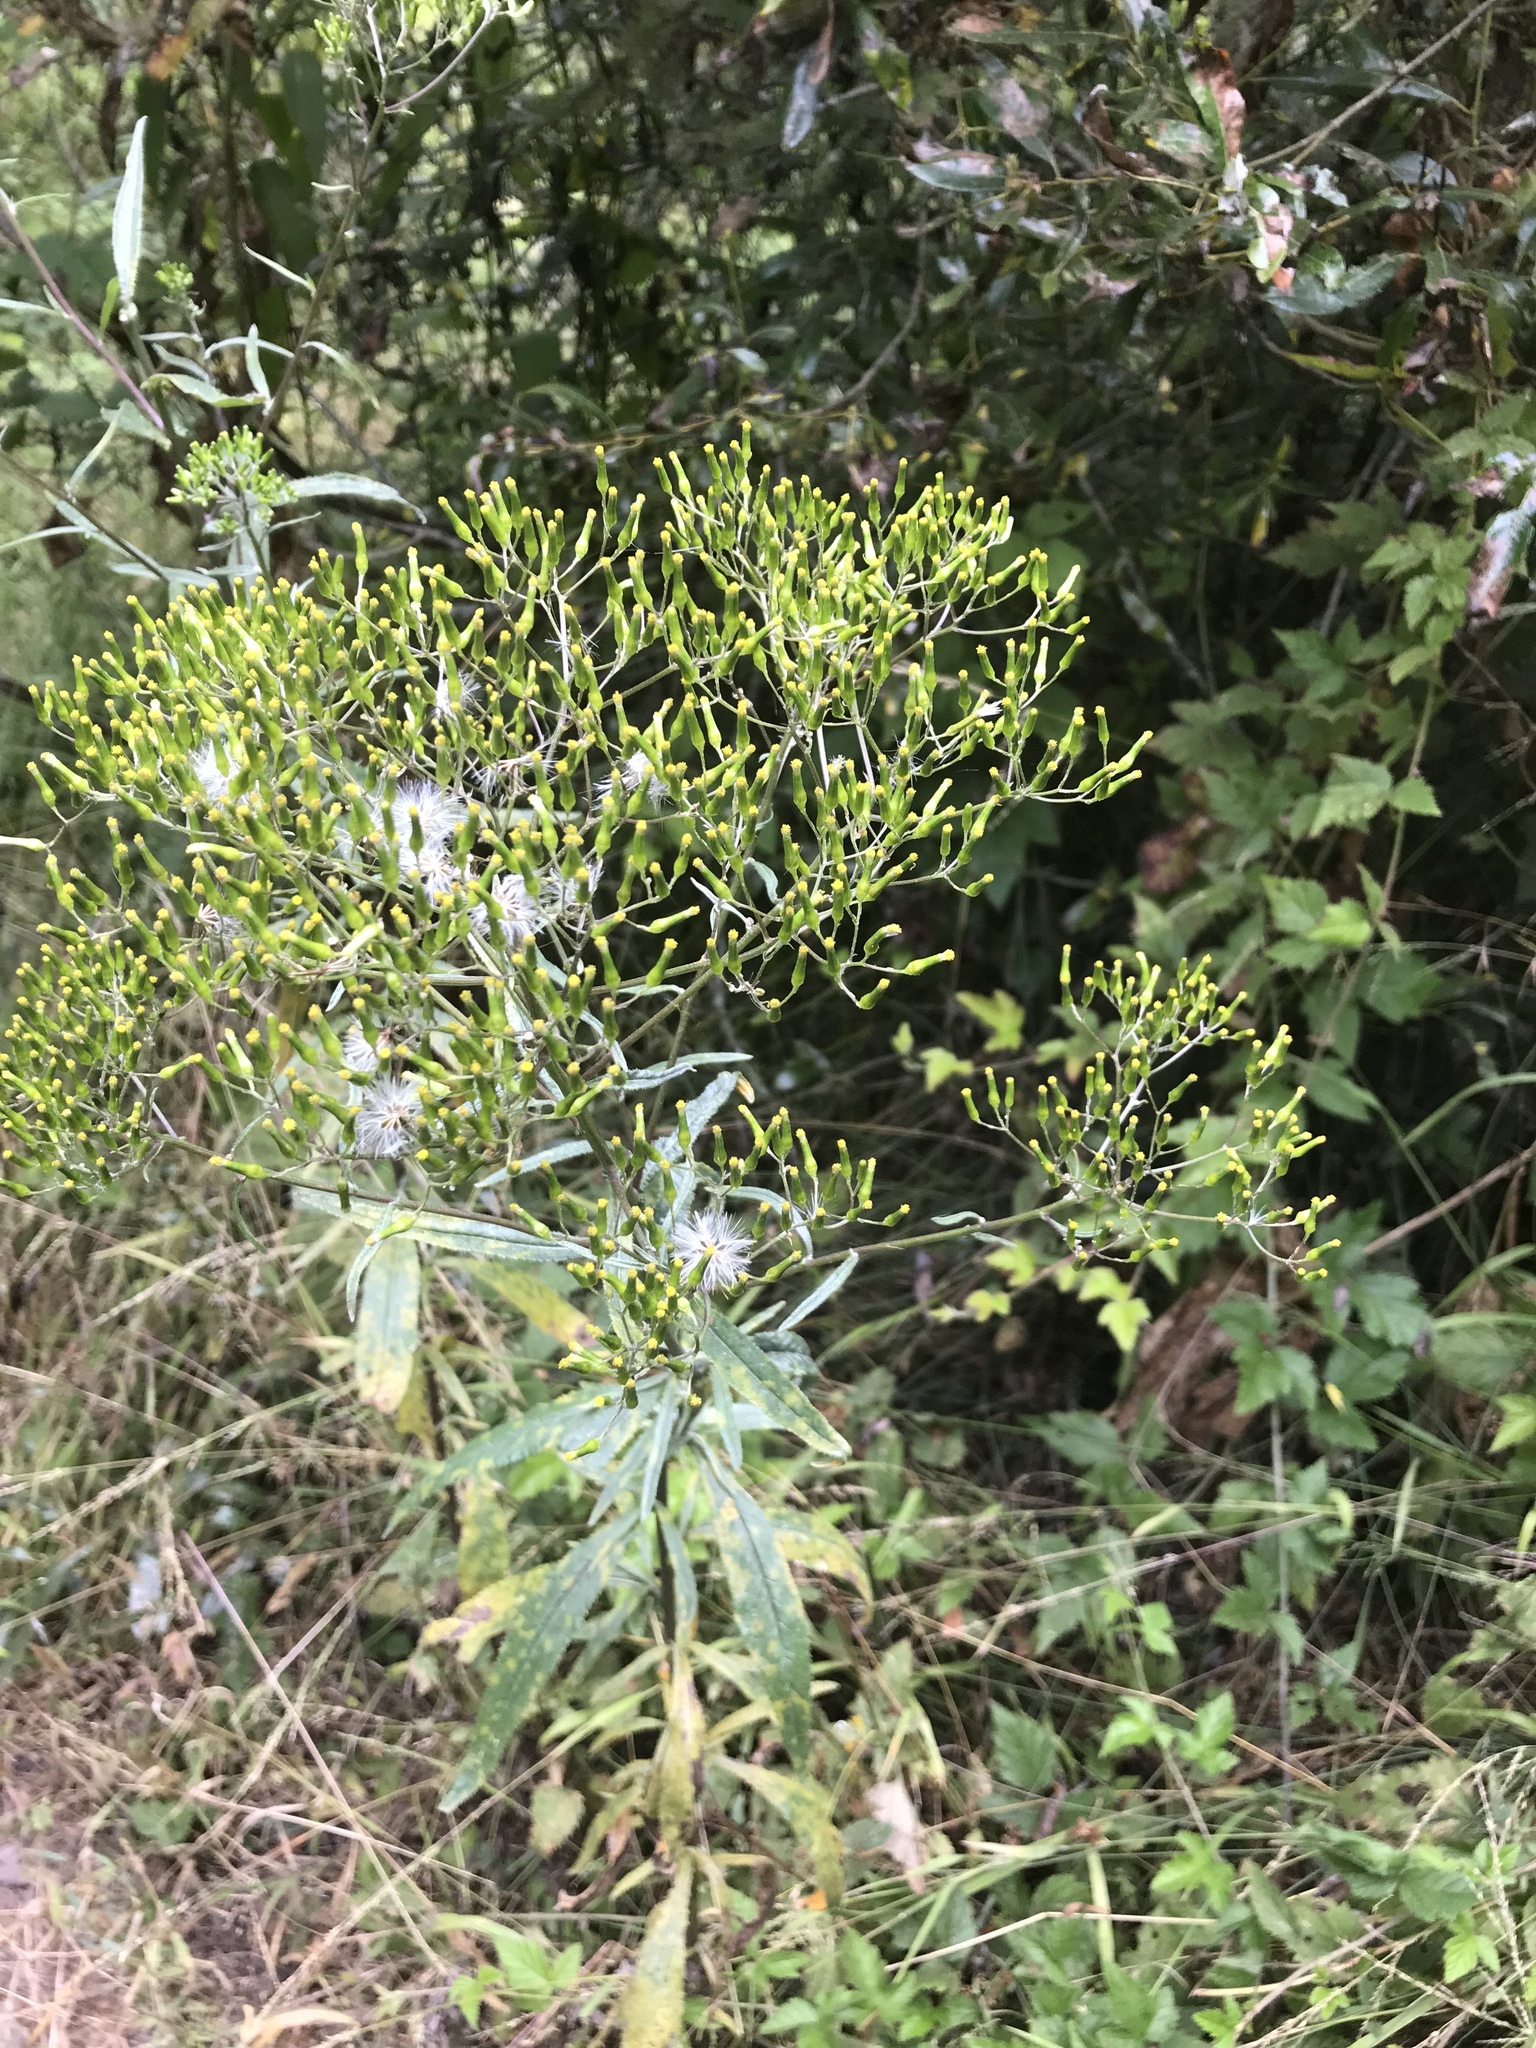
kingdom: Plantae
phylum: Tracheophyta
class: Magnoliopsida
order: Asterales
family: Asteraceae
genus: Senecio
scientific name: Senecio minimus
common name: Toothed fireweed
